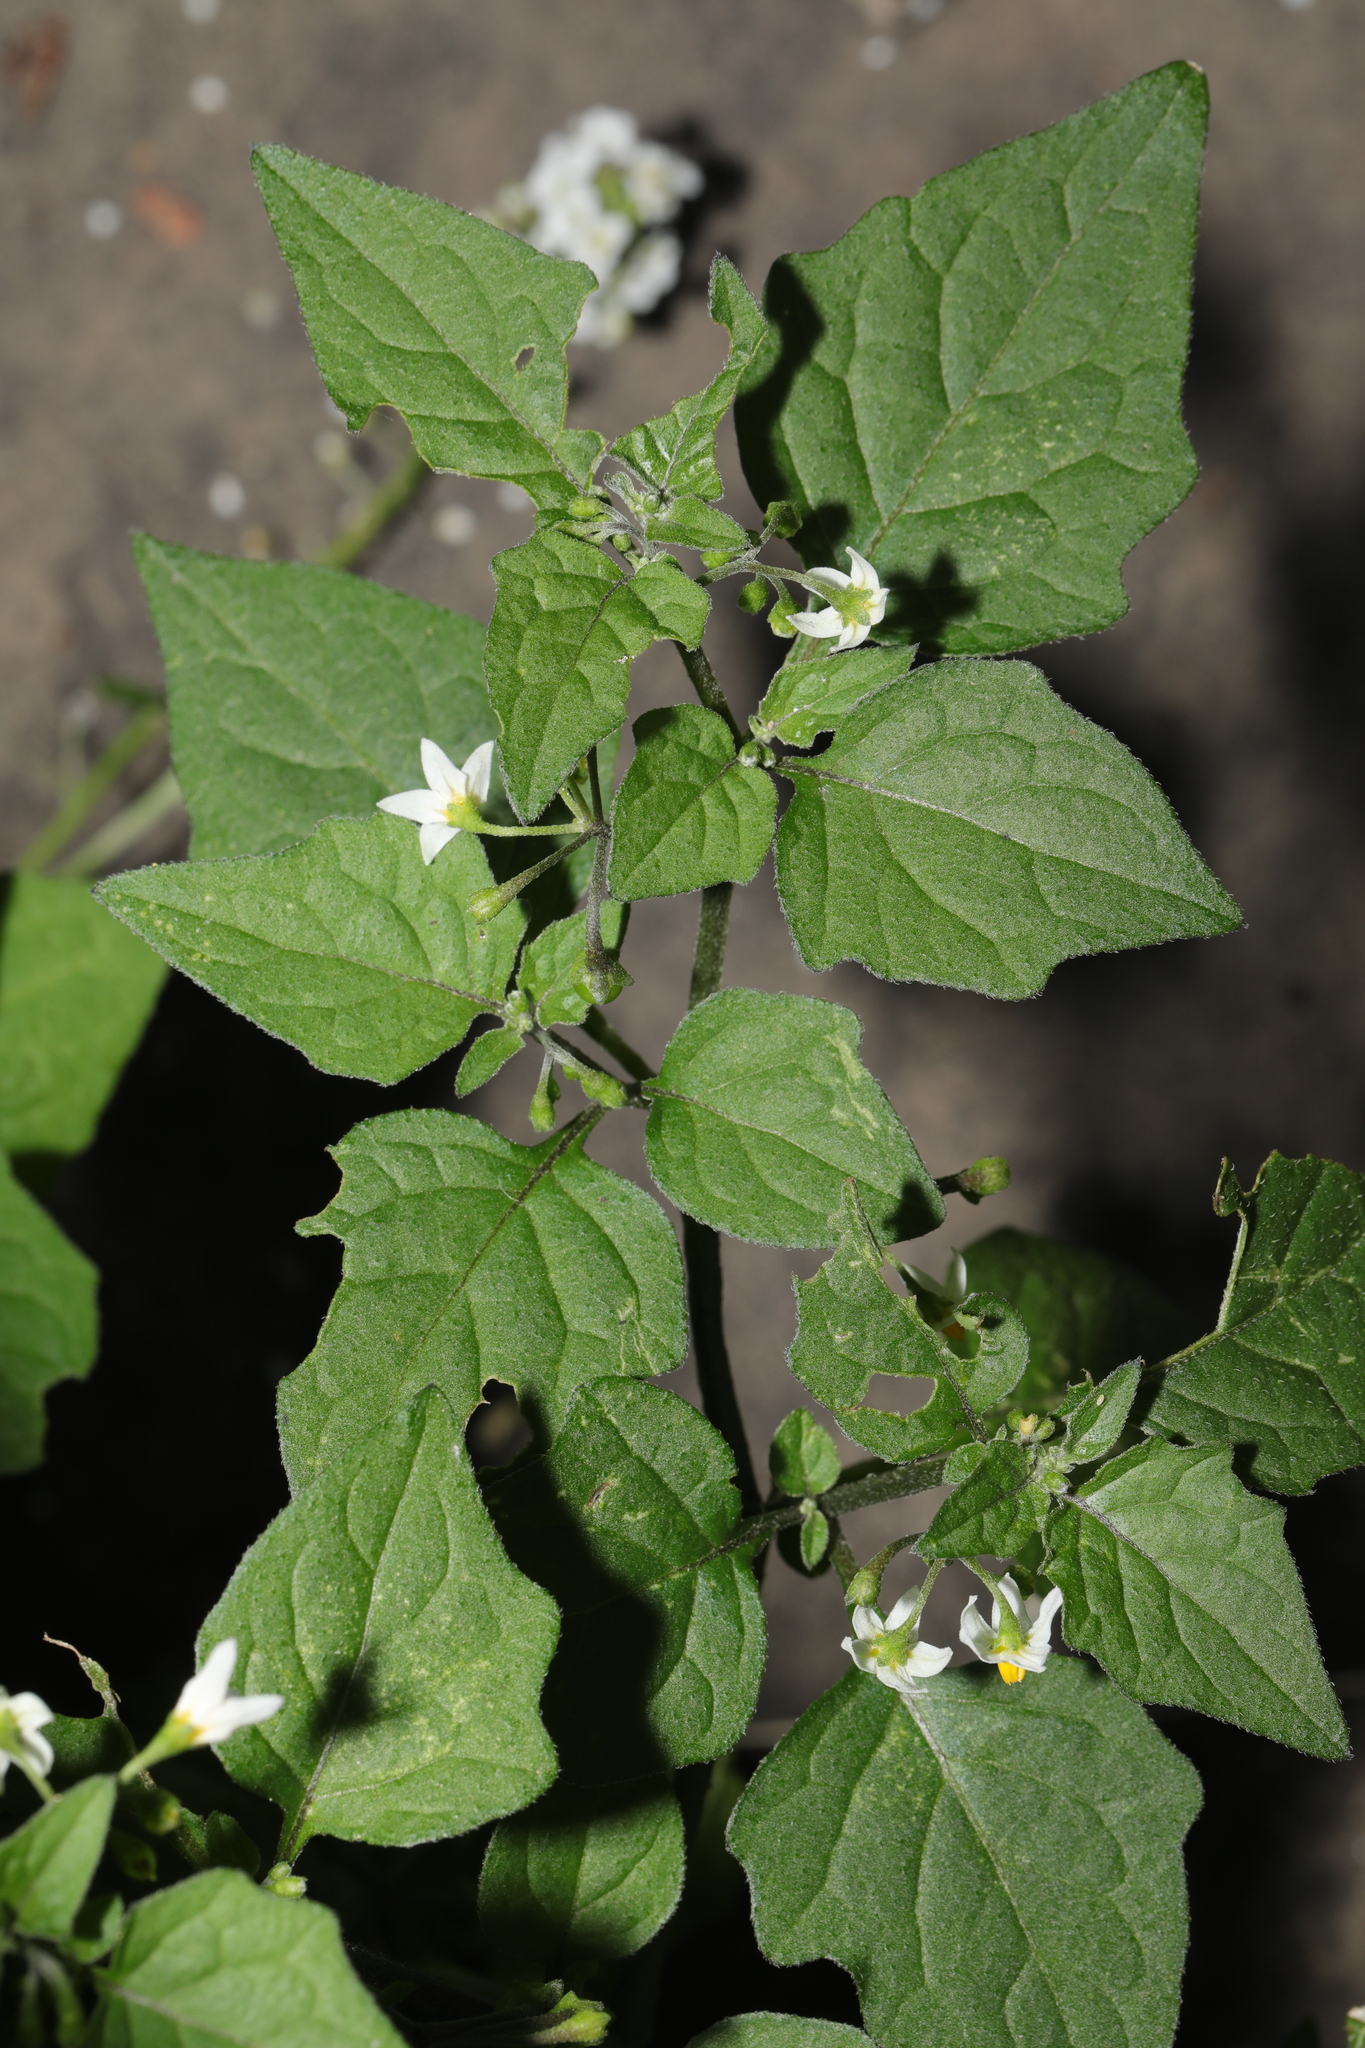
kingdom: Plantae
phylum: Tracheophyta
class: Magnoliopsida
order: Solanales
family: Solanaceae
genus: Solanum
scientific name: Solanum nigrum
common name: Black nightshade
